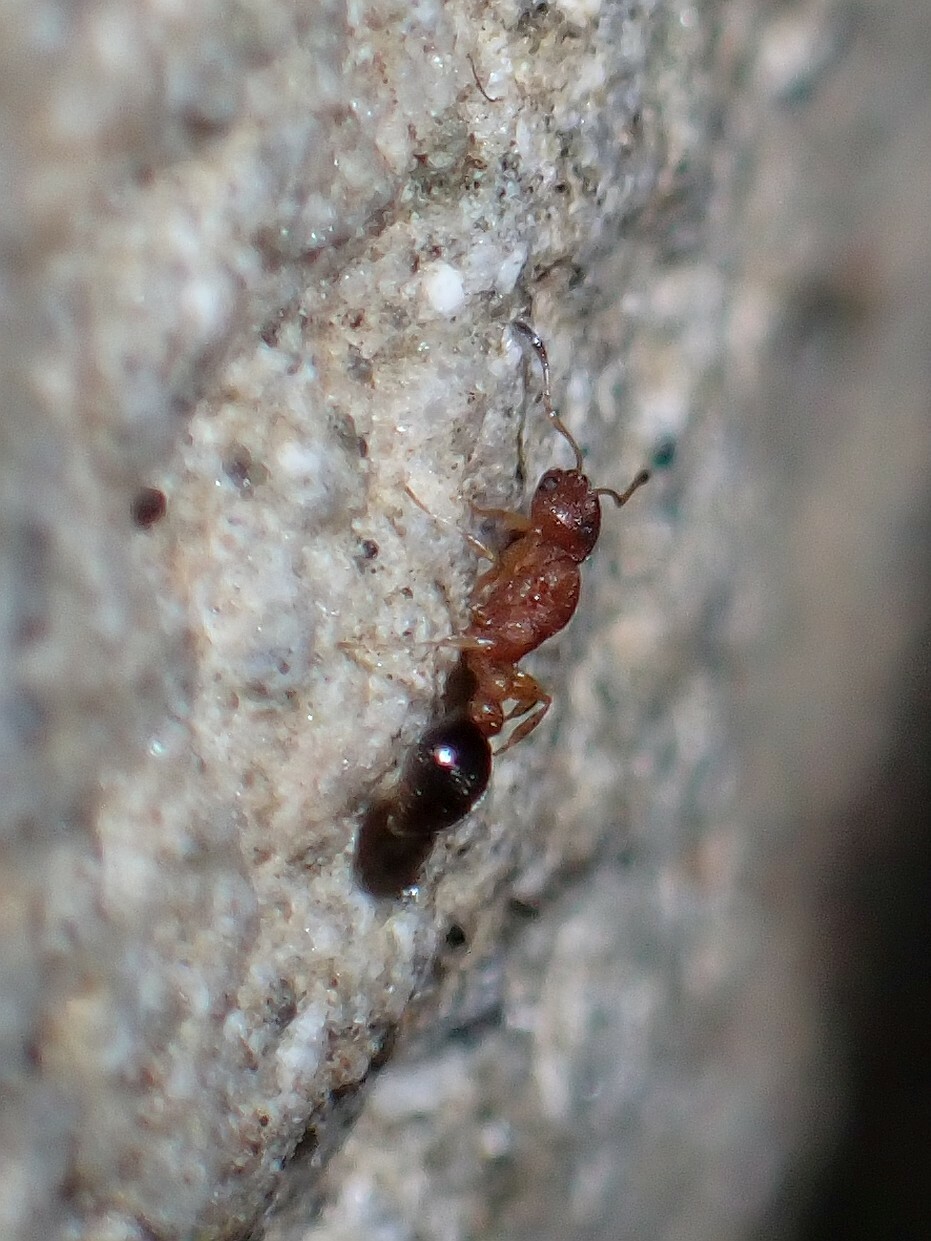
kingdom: Animalia
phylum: Arthropoda
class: Insecta
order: Hymenoptera
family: Formicidae
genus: Cardiocondyla
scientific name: Cardiocondyla nuda
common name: Sneaking ant
